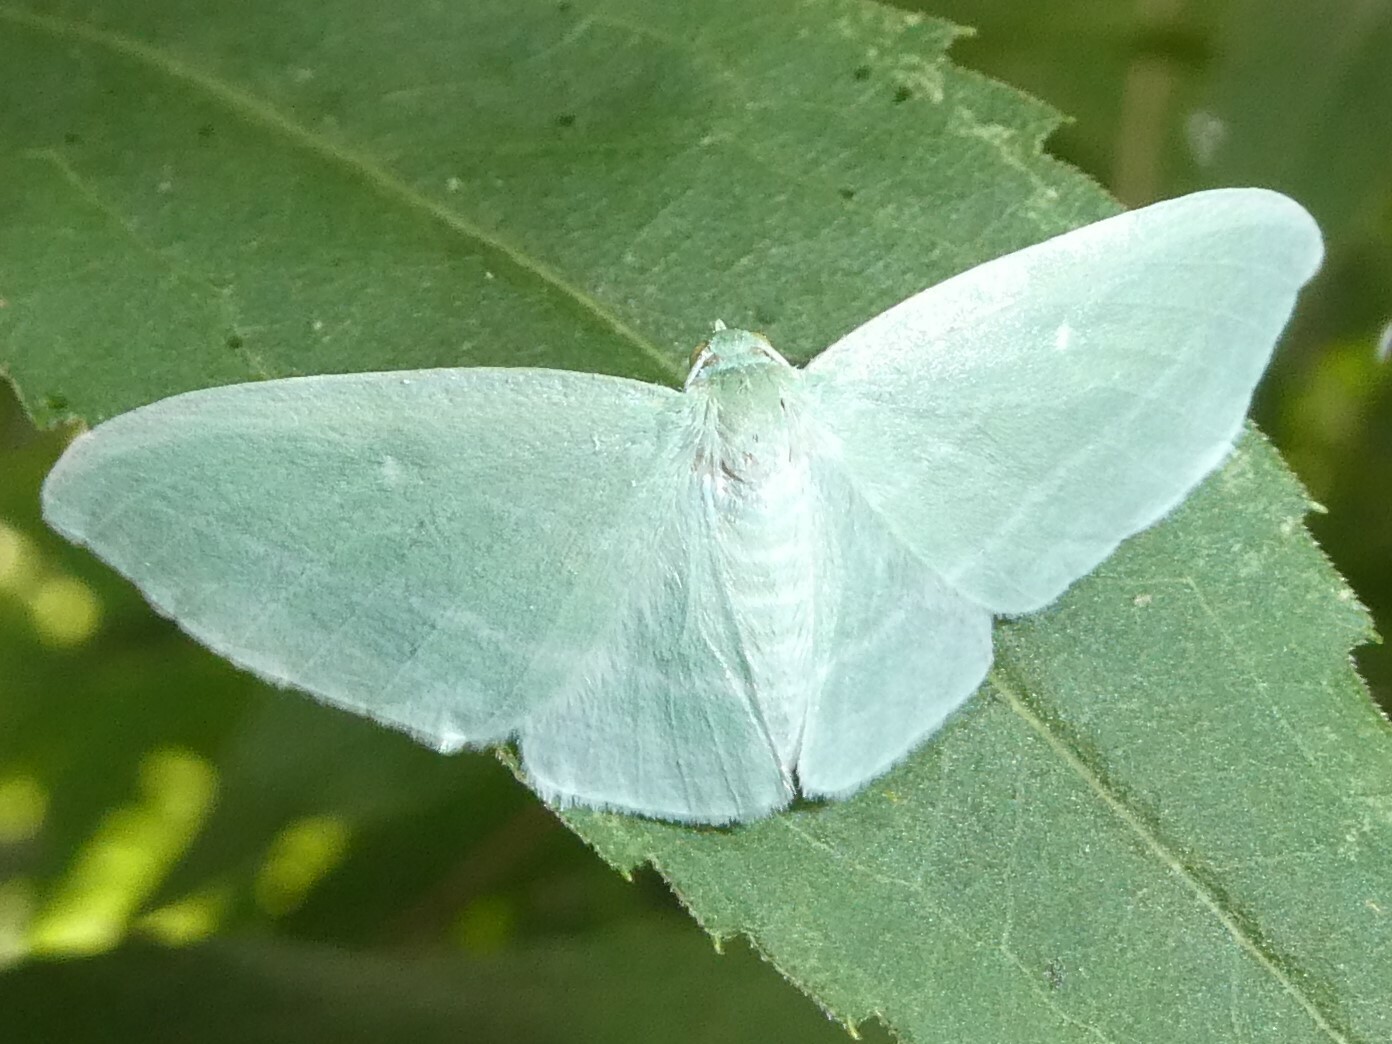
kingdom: Animalia
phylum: Arthropoda
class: Insecta
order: Lepidoptera
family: Geometridae
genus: Dyspteris
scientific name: Dyspteris abortivaria
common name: Bad-wing
